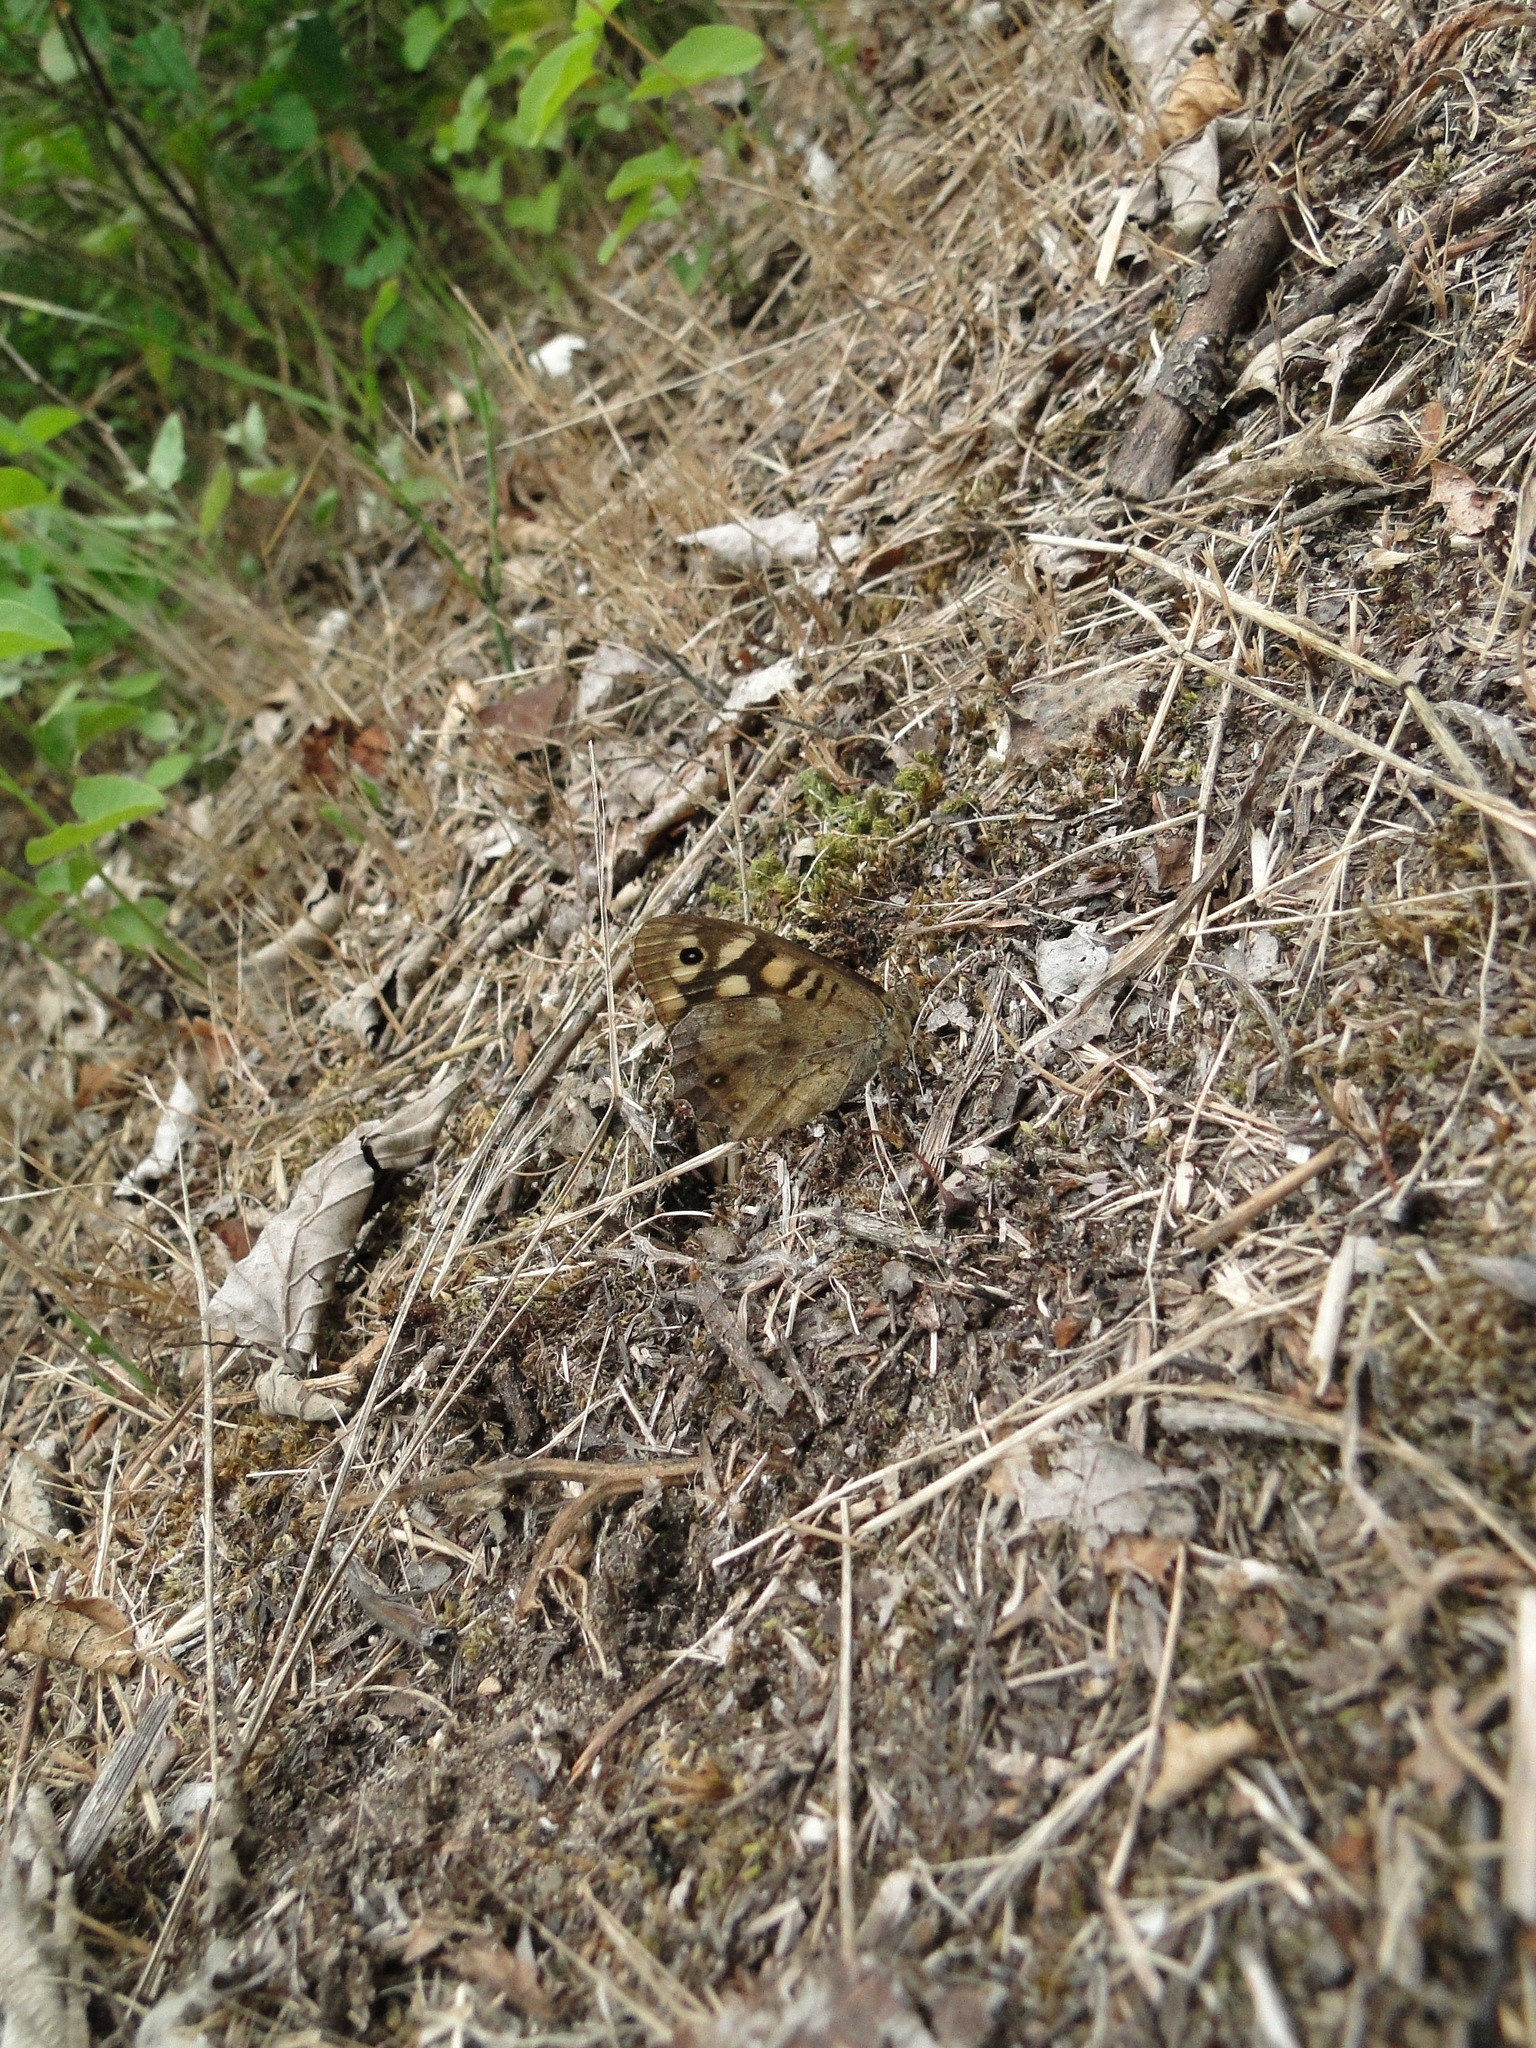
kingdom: Animalia
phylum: Arthropoda
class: Insecta
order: Lepidoptera
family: Nymphalidae
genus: Pararge
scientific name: Pararge aegeria
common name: Speckled wood
